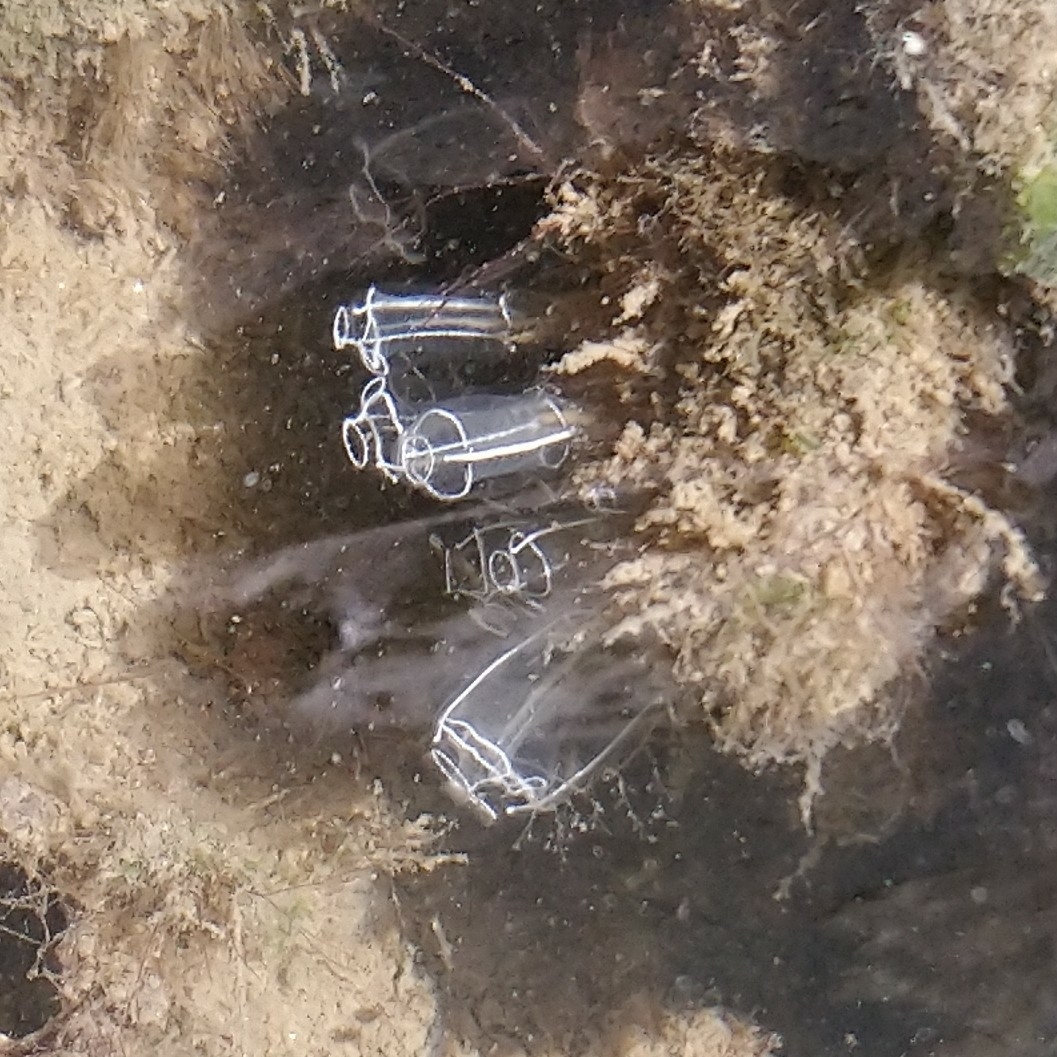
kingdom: Animalia
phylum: Chordata
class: Ascidiacea
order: Aplousobranchia
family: Clavelinidae
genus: Clavelina
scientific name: Clavelina lepadiformis
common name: Light bulb tunicate
